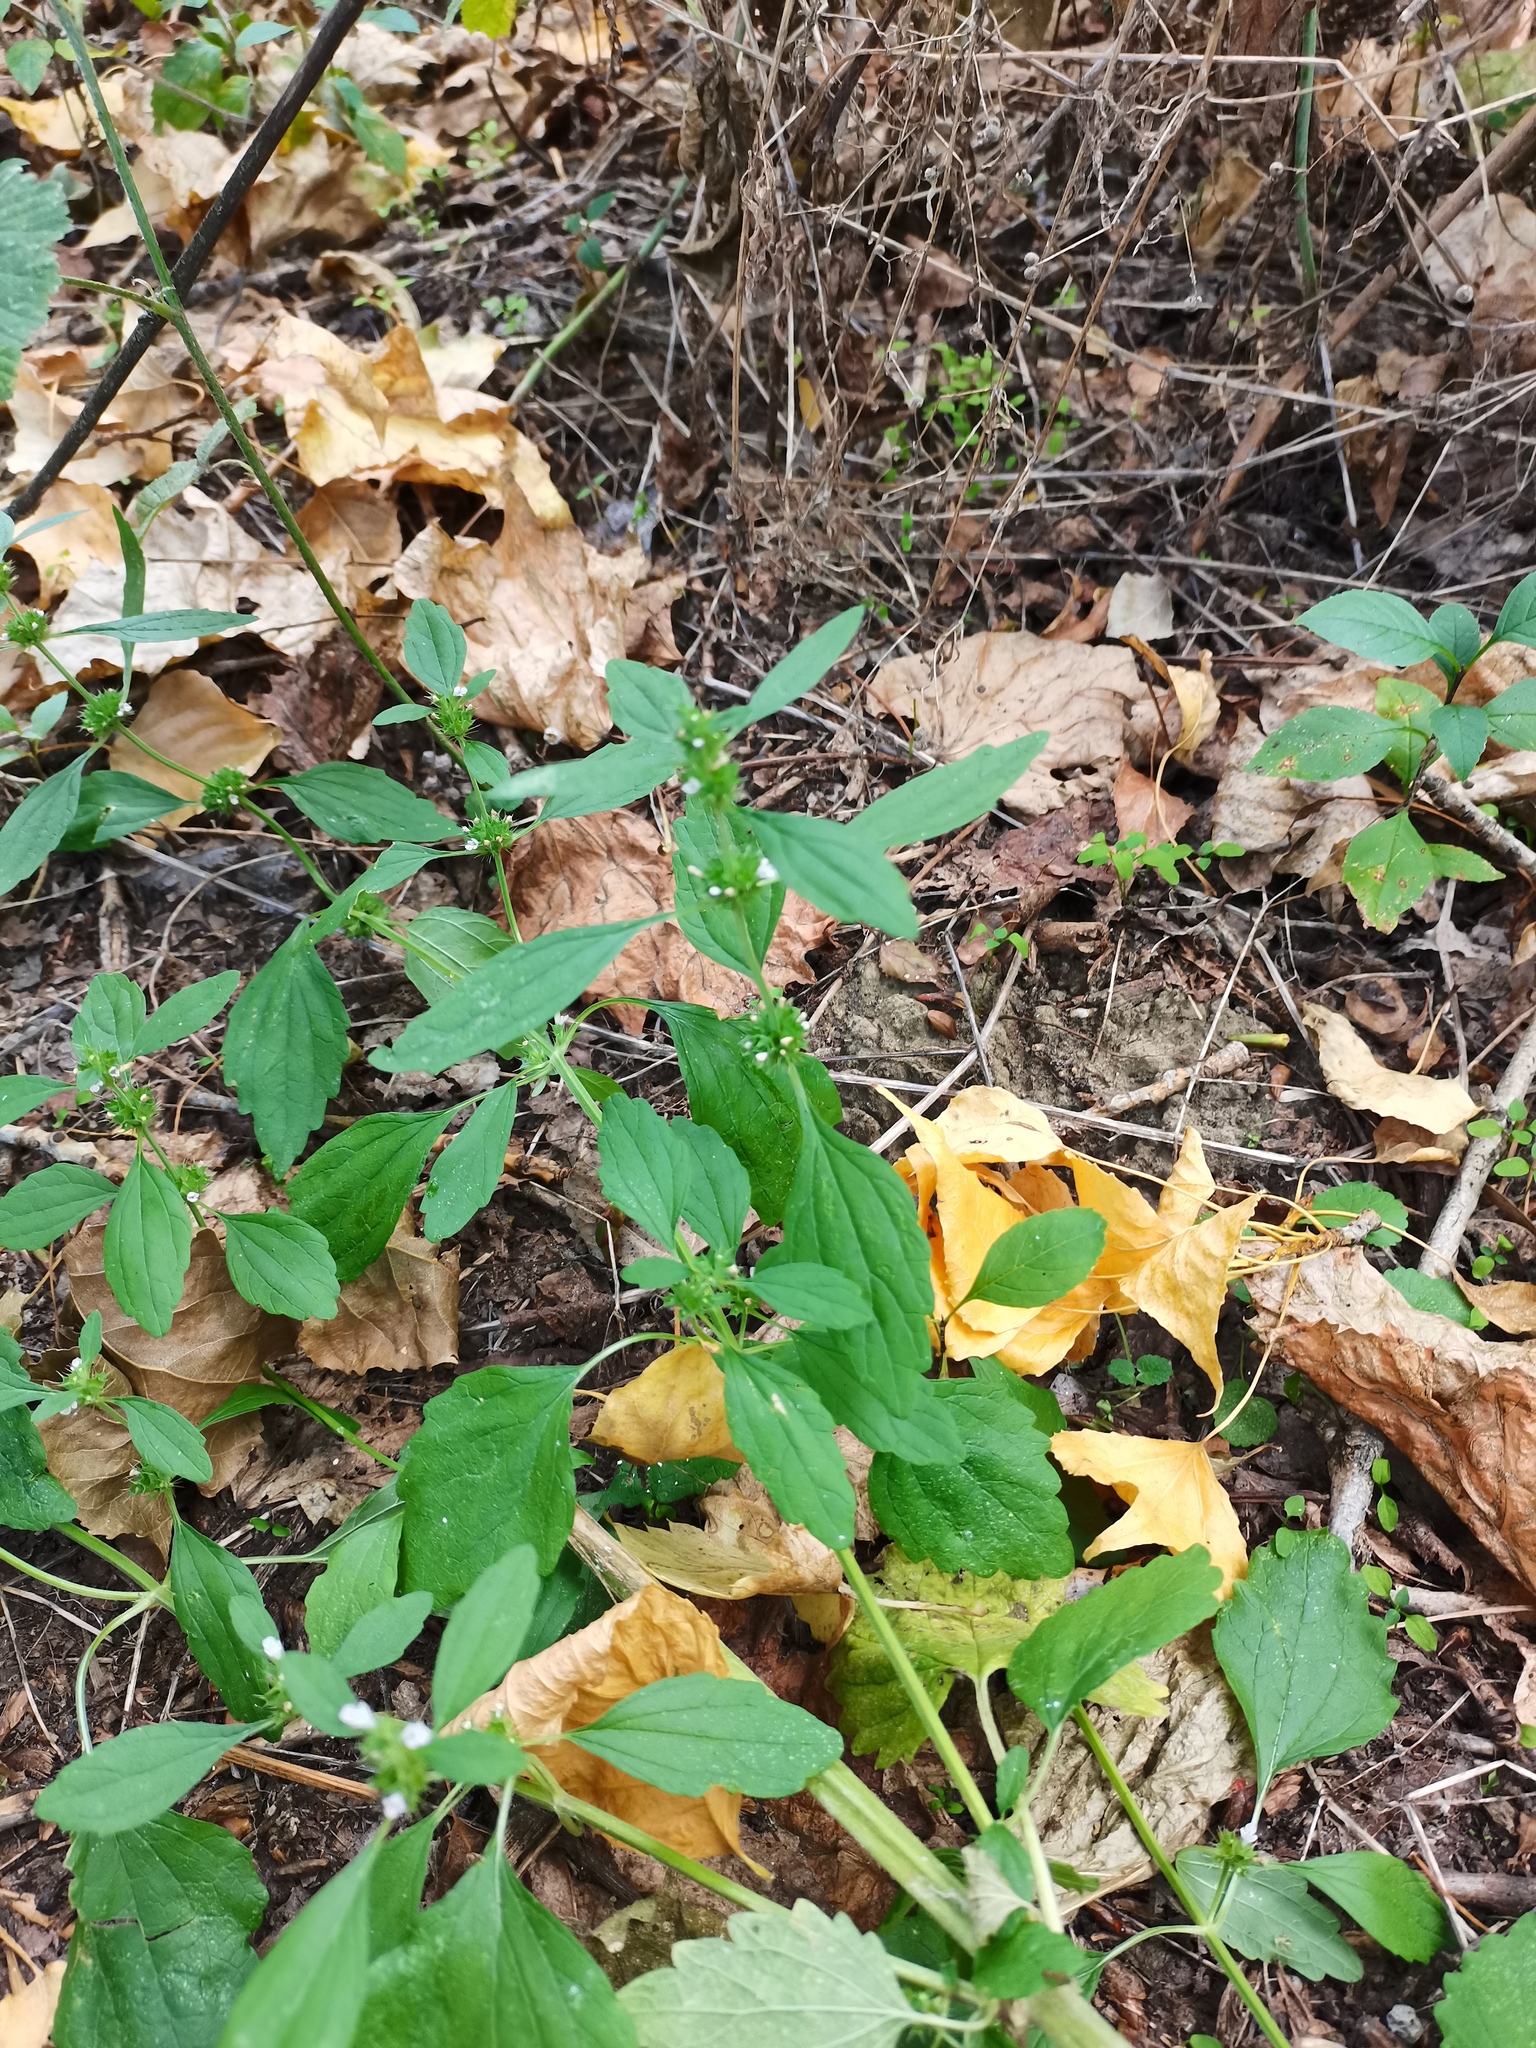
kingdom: Plantae
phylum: Tracheophyta
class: Magnoliopsida
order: Lamiales
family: Lamiaceae
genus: Chaiturus
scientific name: Chaiturus marrubiastrum
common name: Lion's tail
